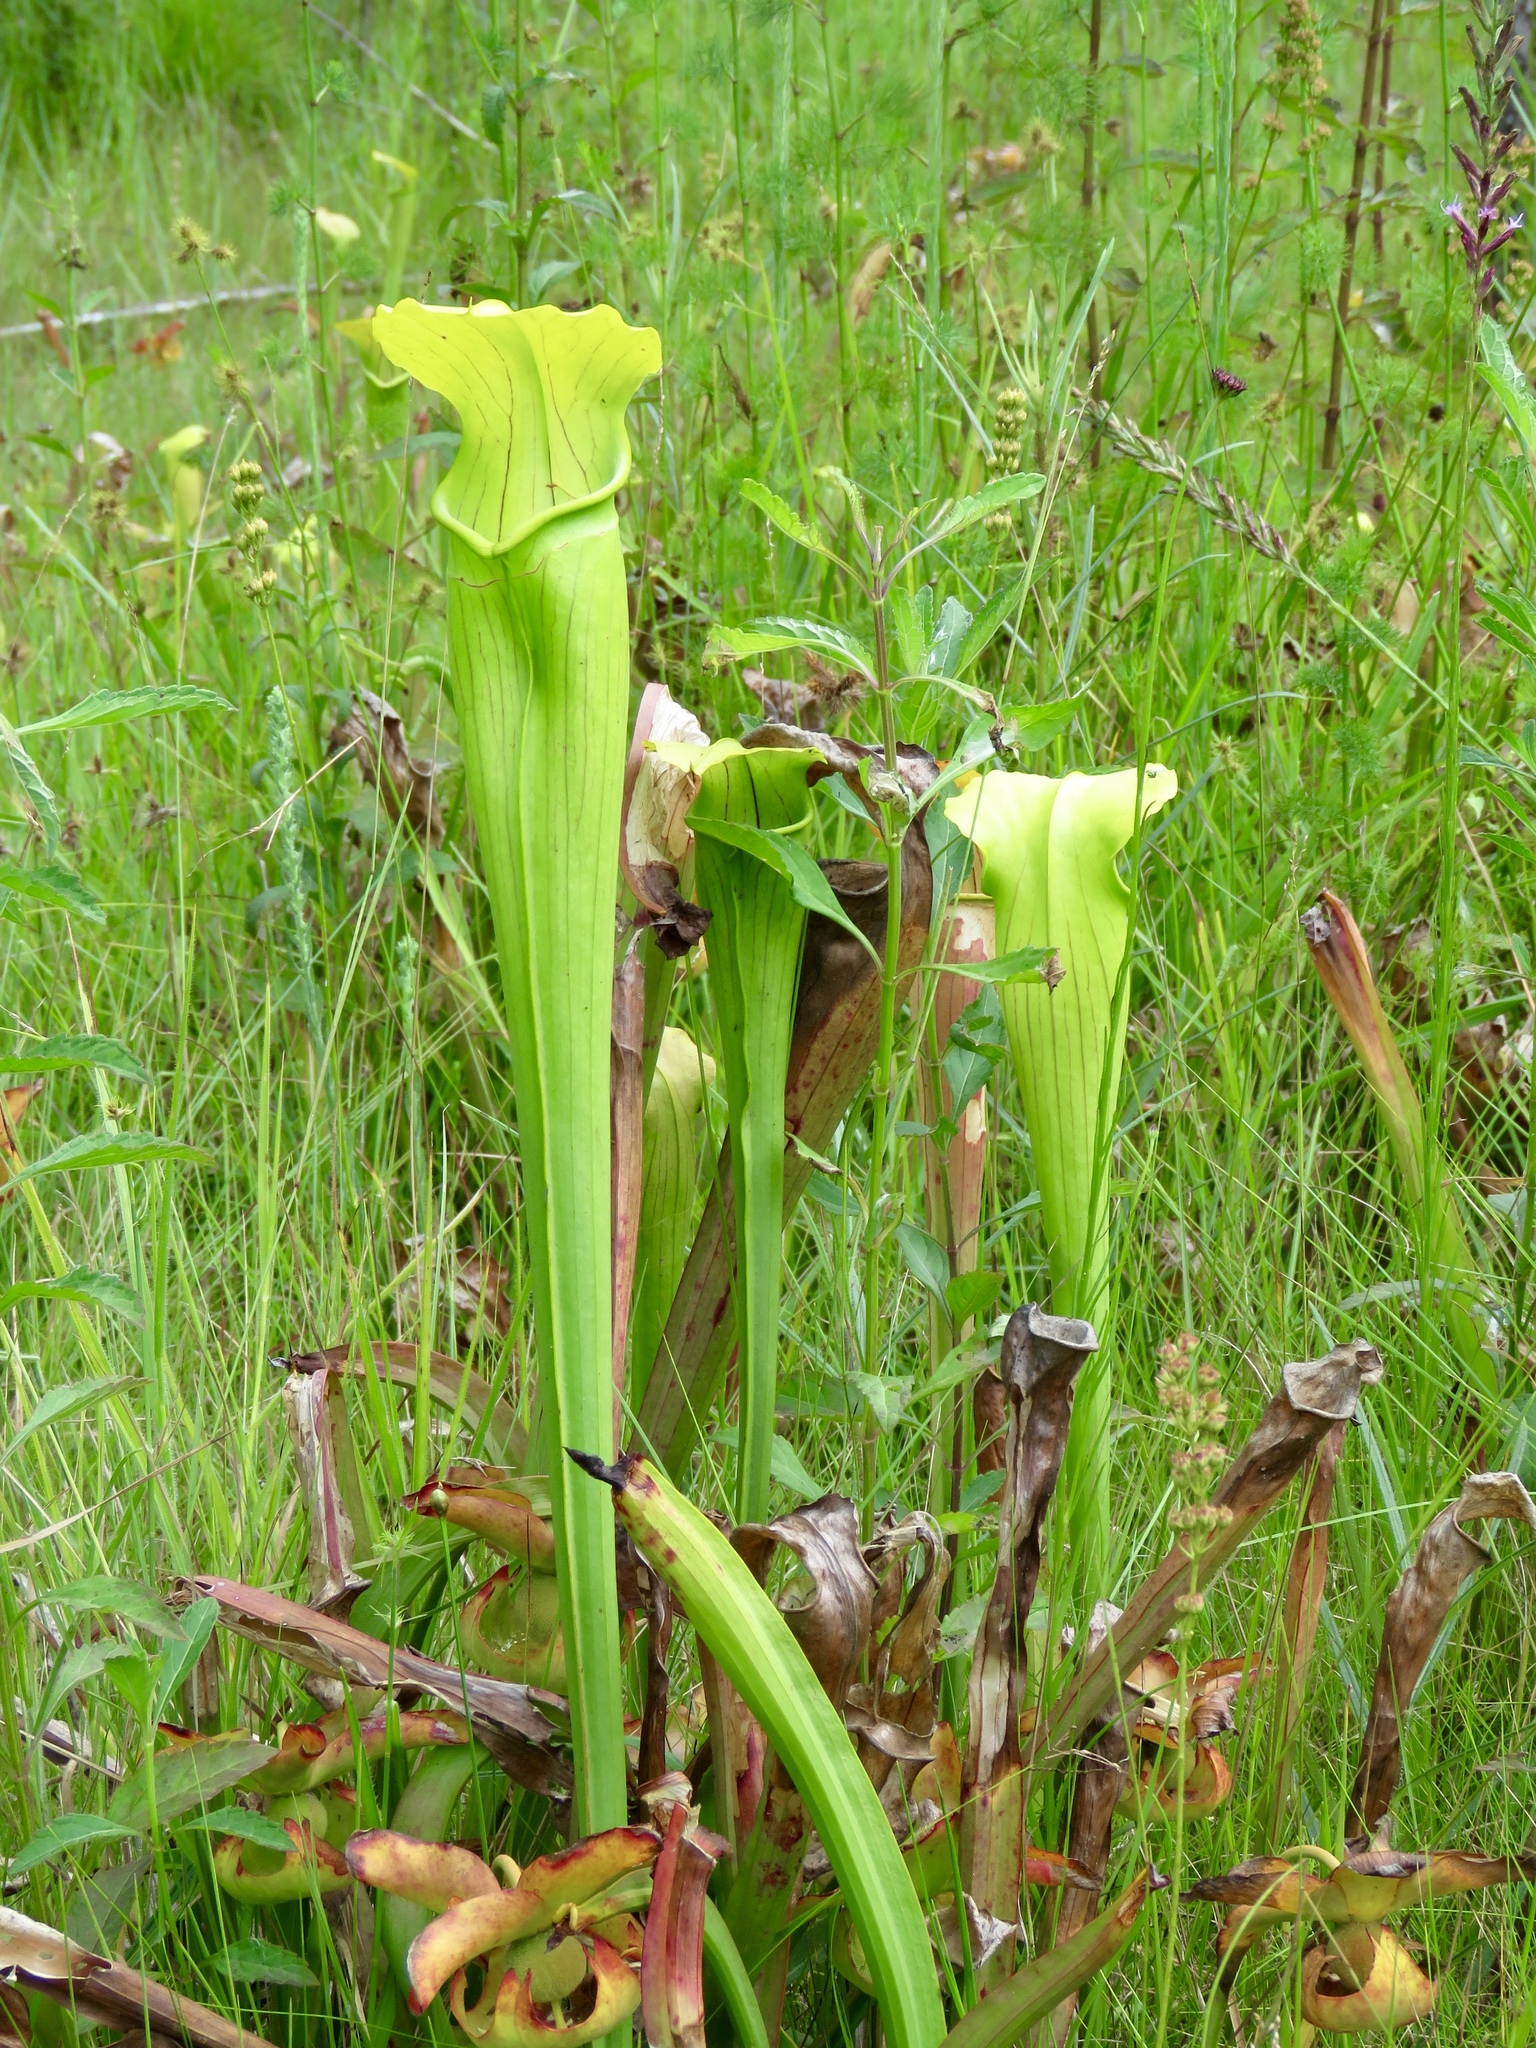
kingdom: Plantae
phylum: Tracheophyta
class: Magnoliopsida
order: Ericales
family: Sarraceniaceae
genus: Sarracenia
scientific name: Sarracenia alata
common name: Yellow trumpets
